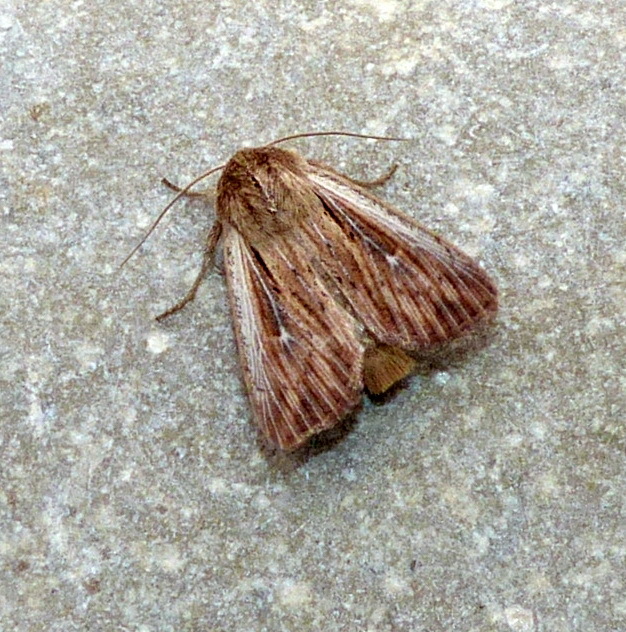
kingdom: Animalia
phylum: Arthropoda
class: Insecta
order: Lepidoptera
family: Noctuidae
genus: Leucania
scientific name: Leucania insueta
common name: Heterodox wainscot moth
